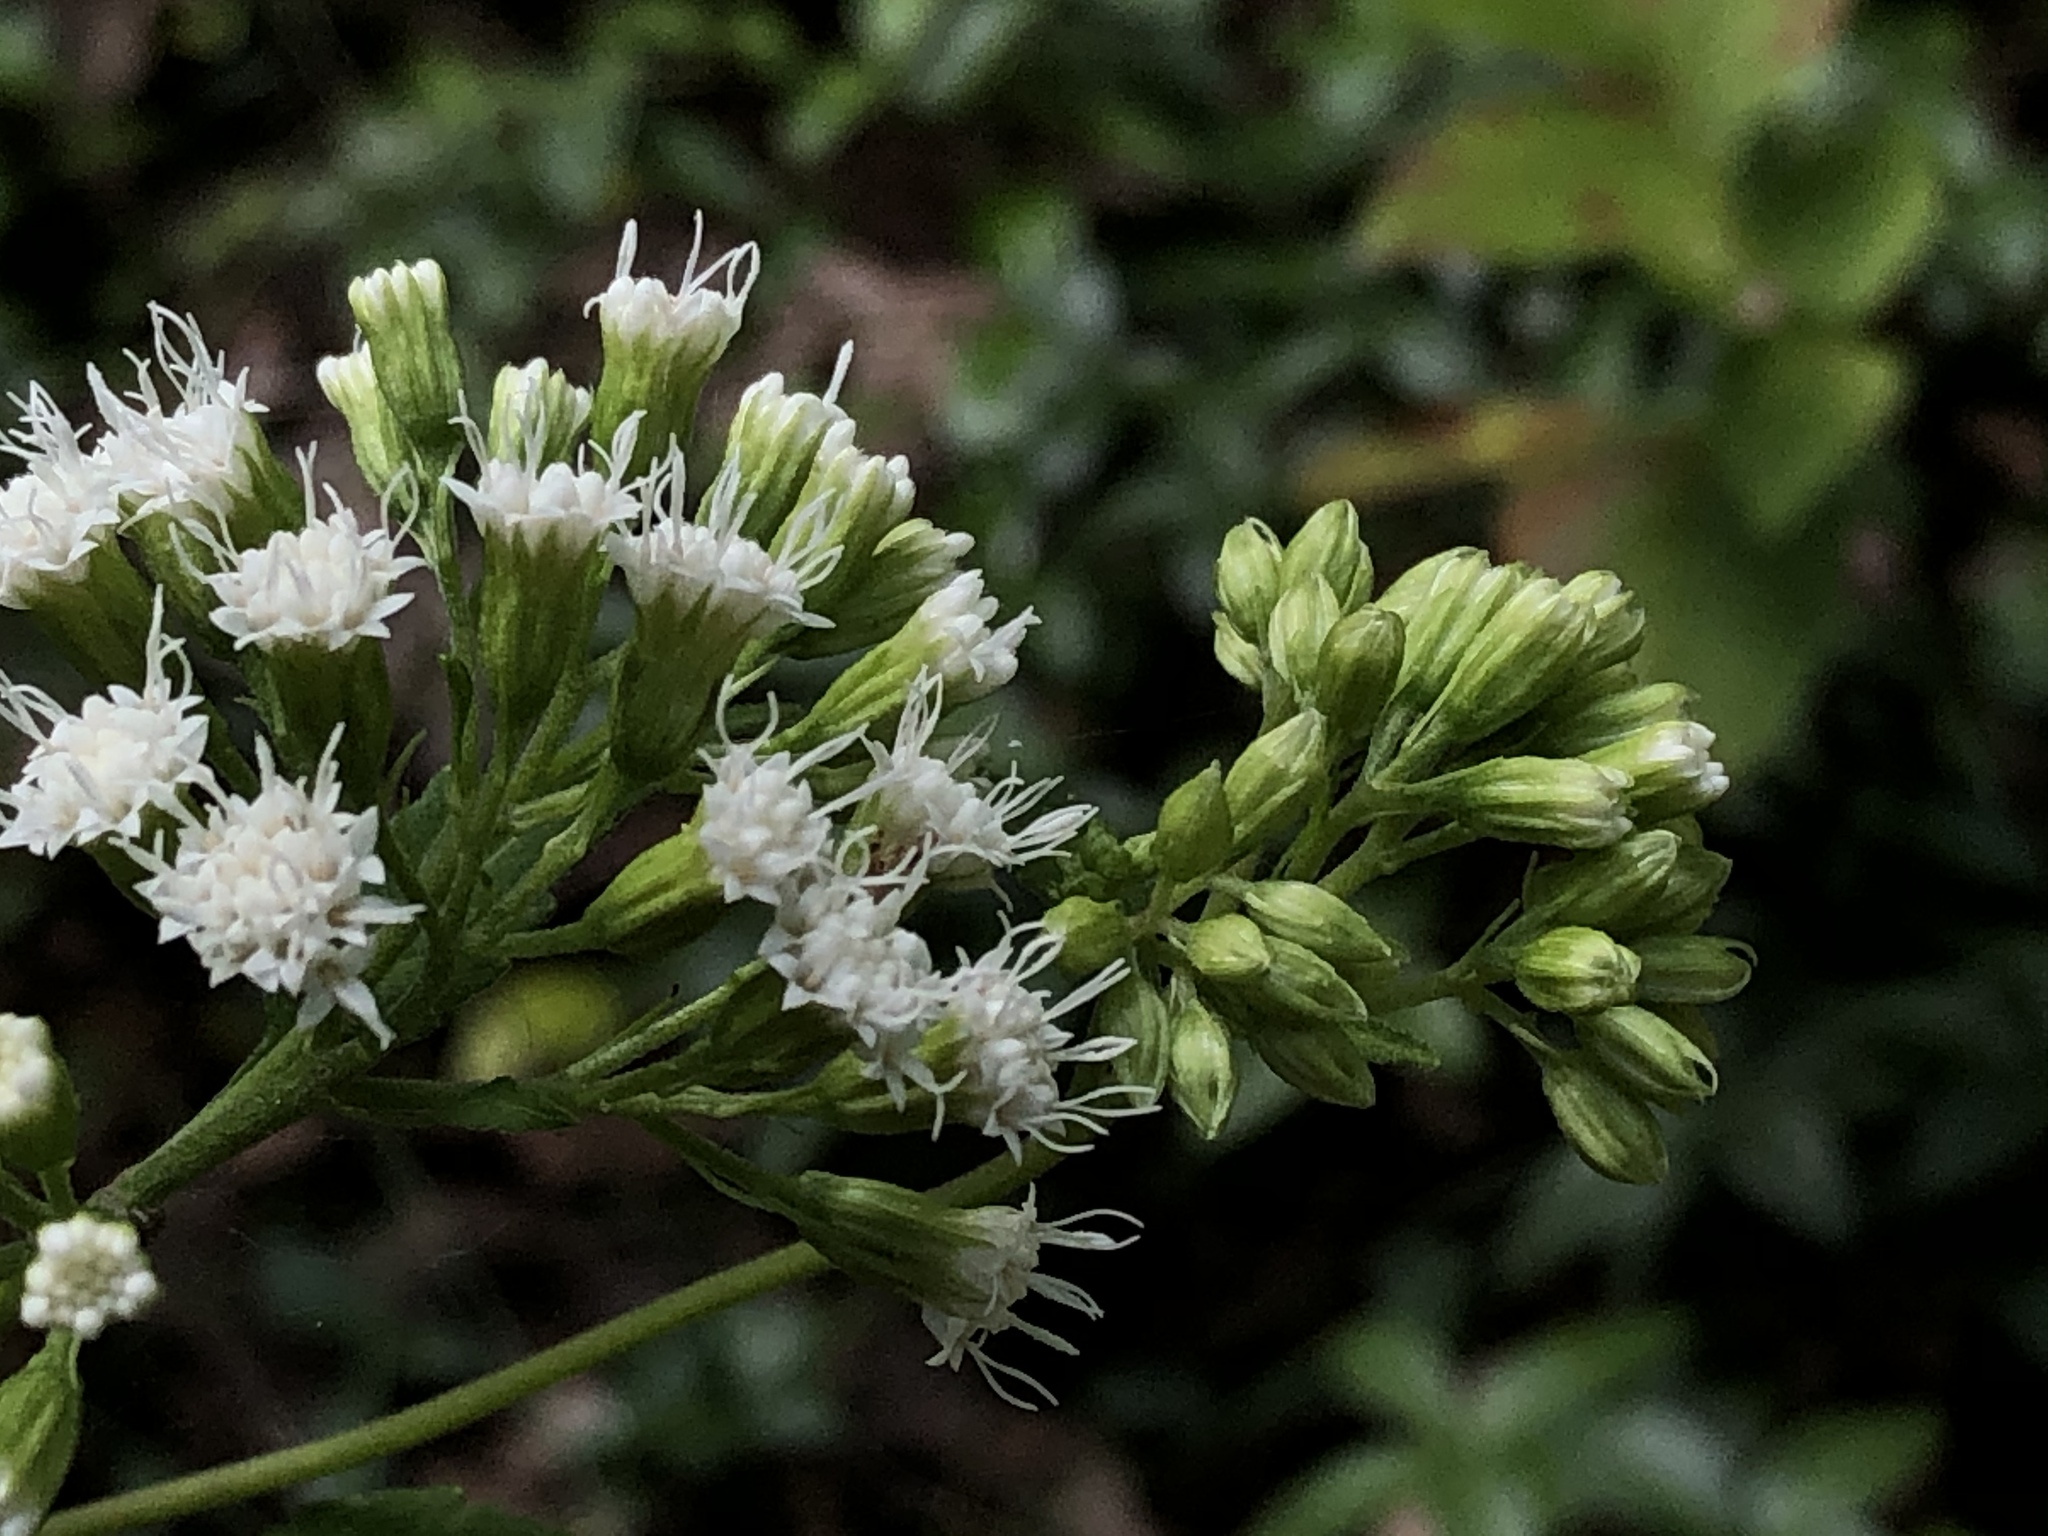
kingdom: Plantae
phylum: Tracheophyta
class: Magnoliopsida
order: Asterales
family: Asteraceae
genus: Ageratina
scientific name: Ageratina altissima
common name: White snakeroot
